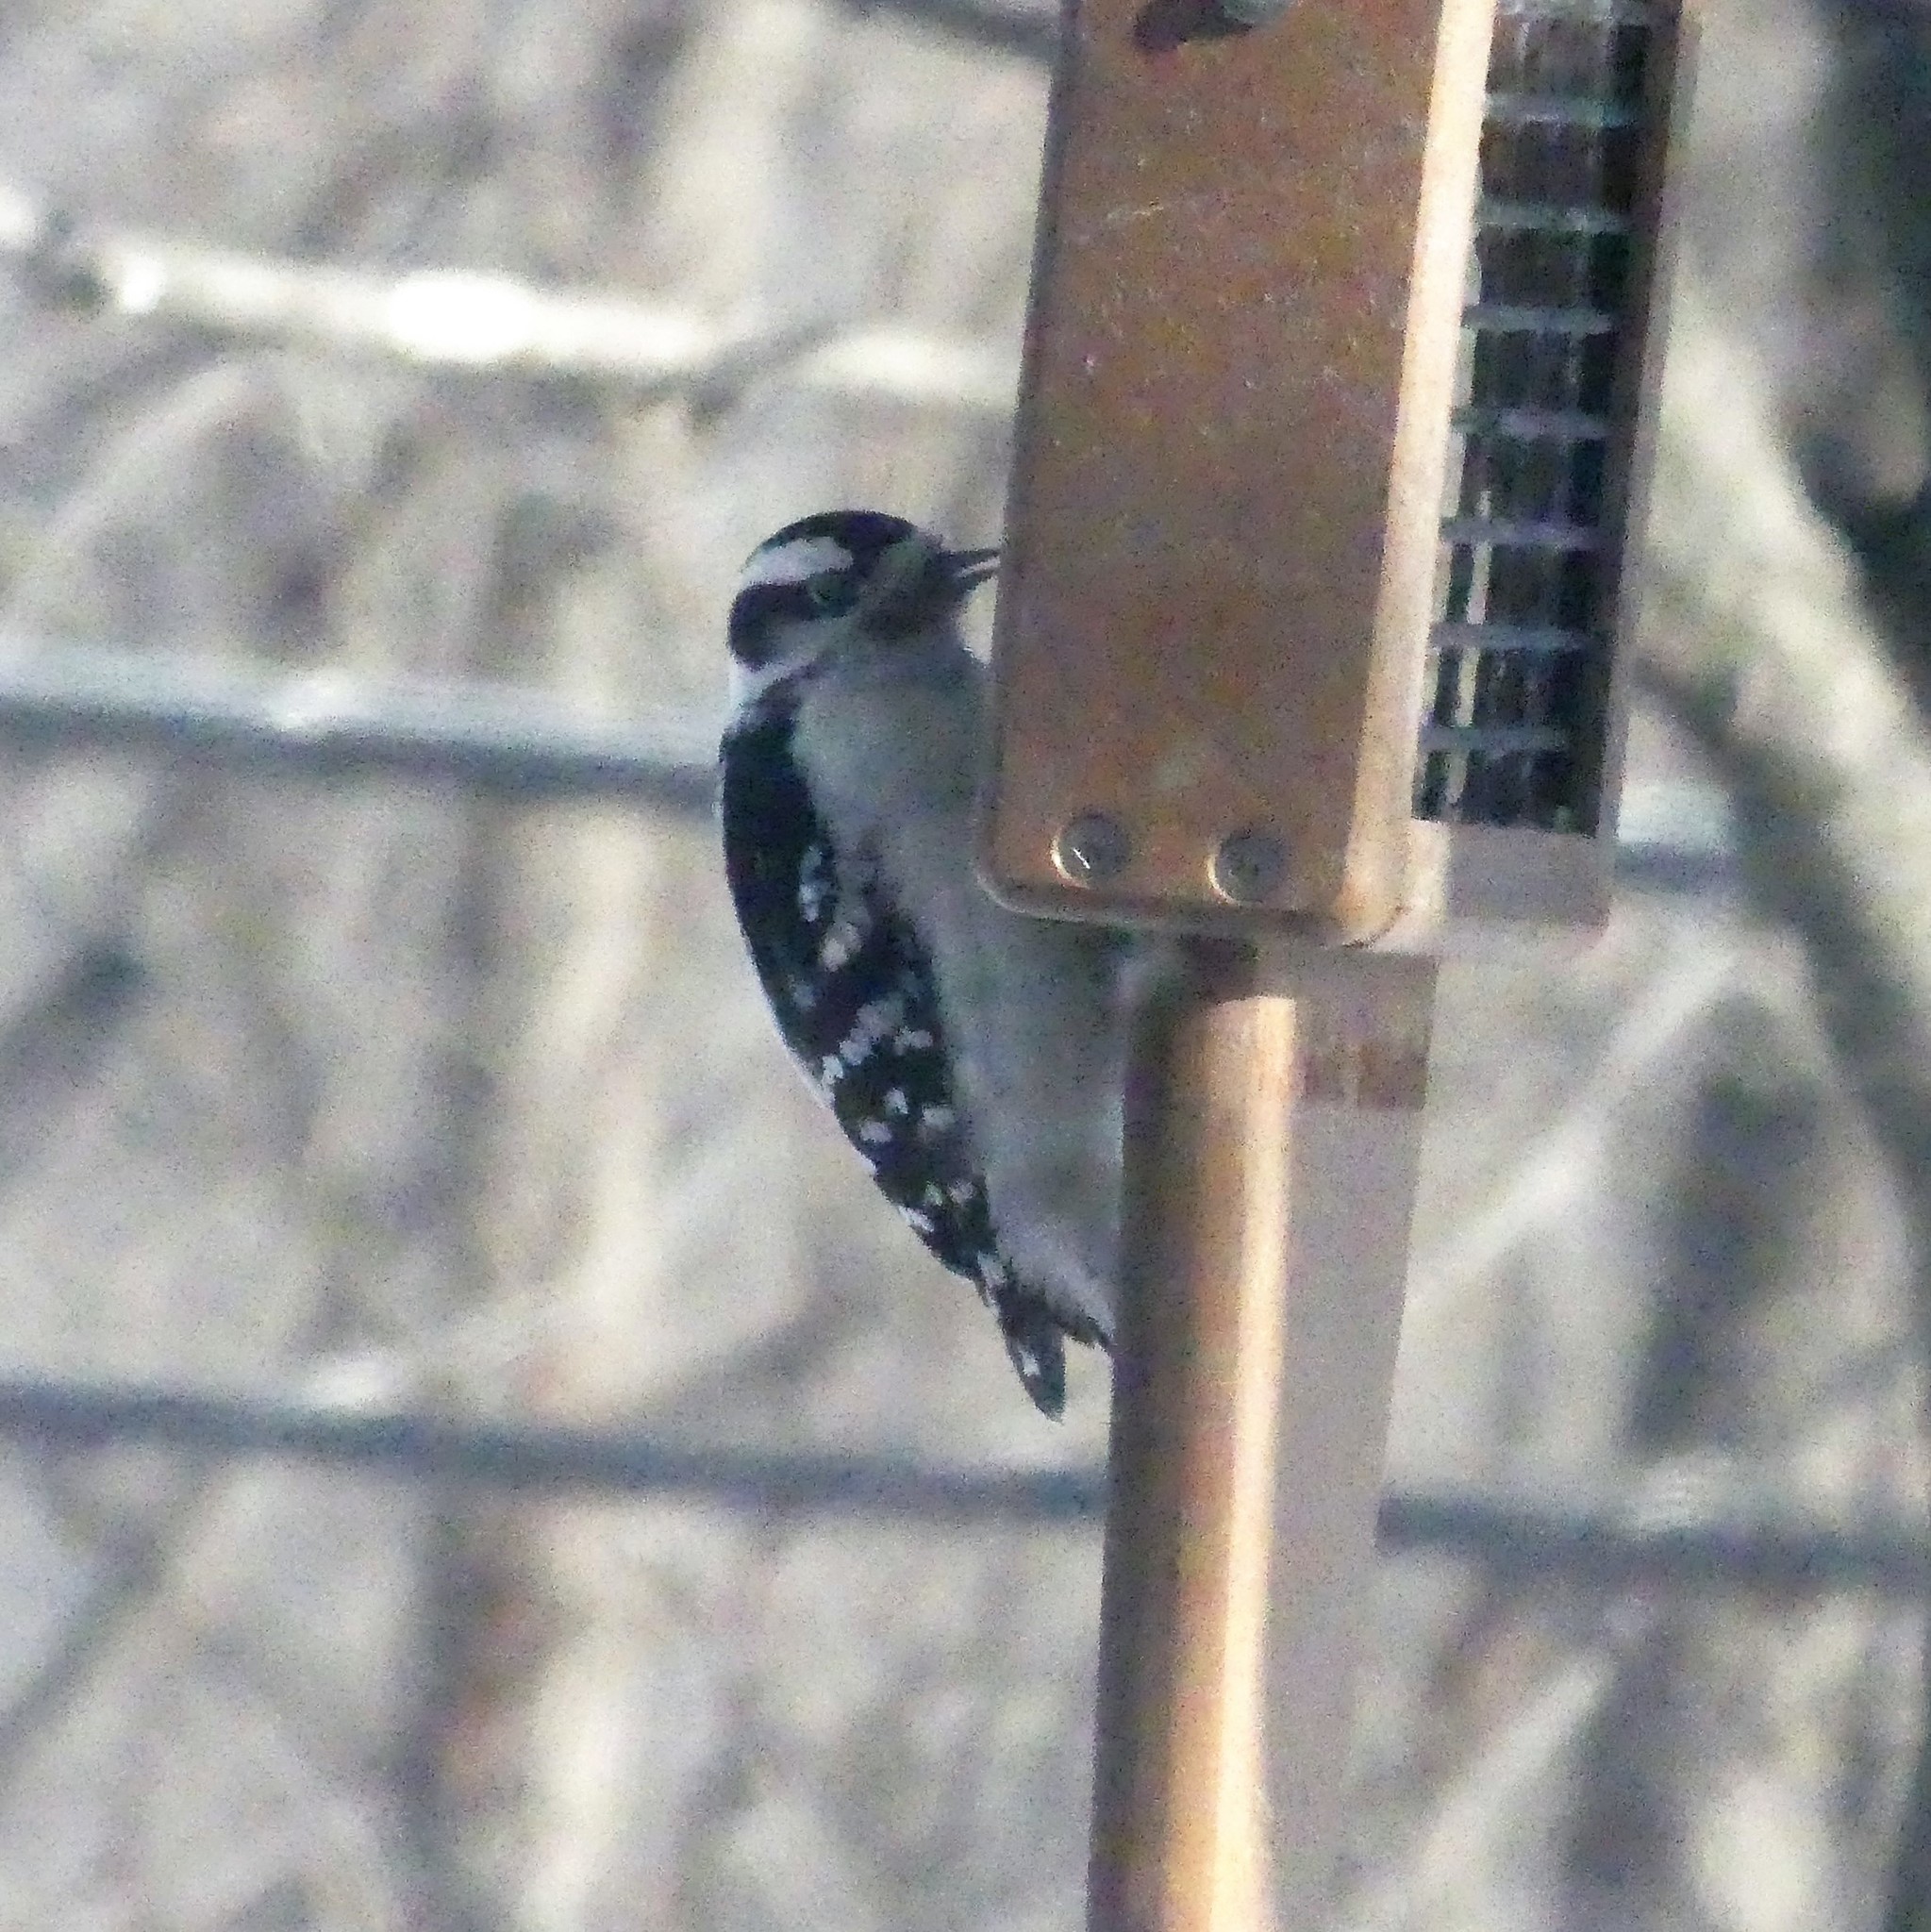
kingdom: Animalia
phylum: Chordata
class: Aves
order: Piciformes
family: Picidae
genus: Dryobates
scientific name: Dryobates pubescens
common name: Downy woodpecker
